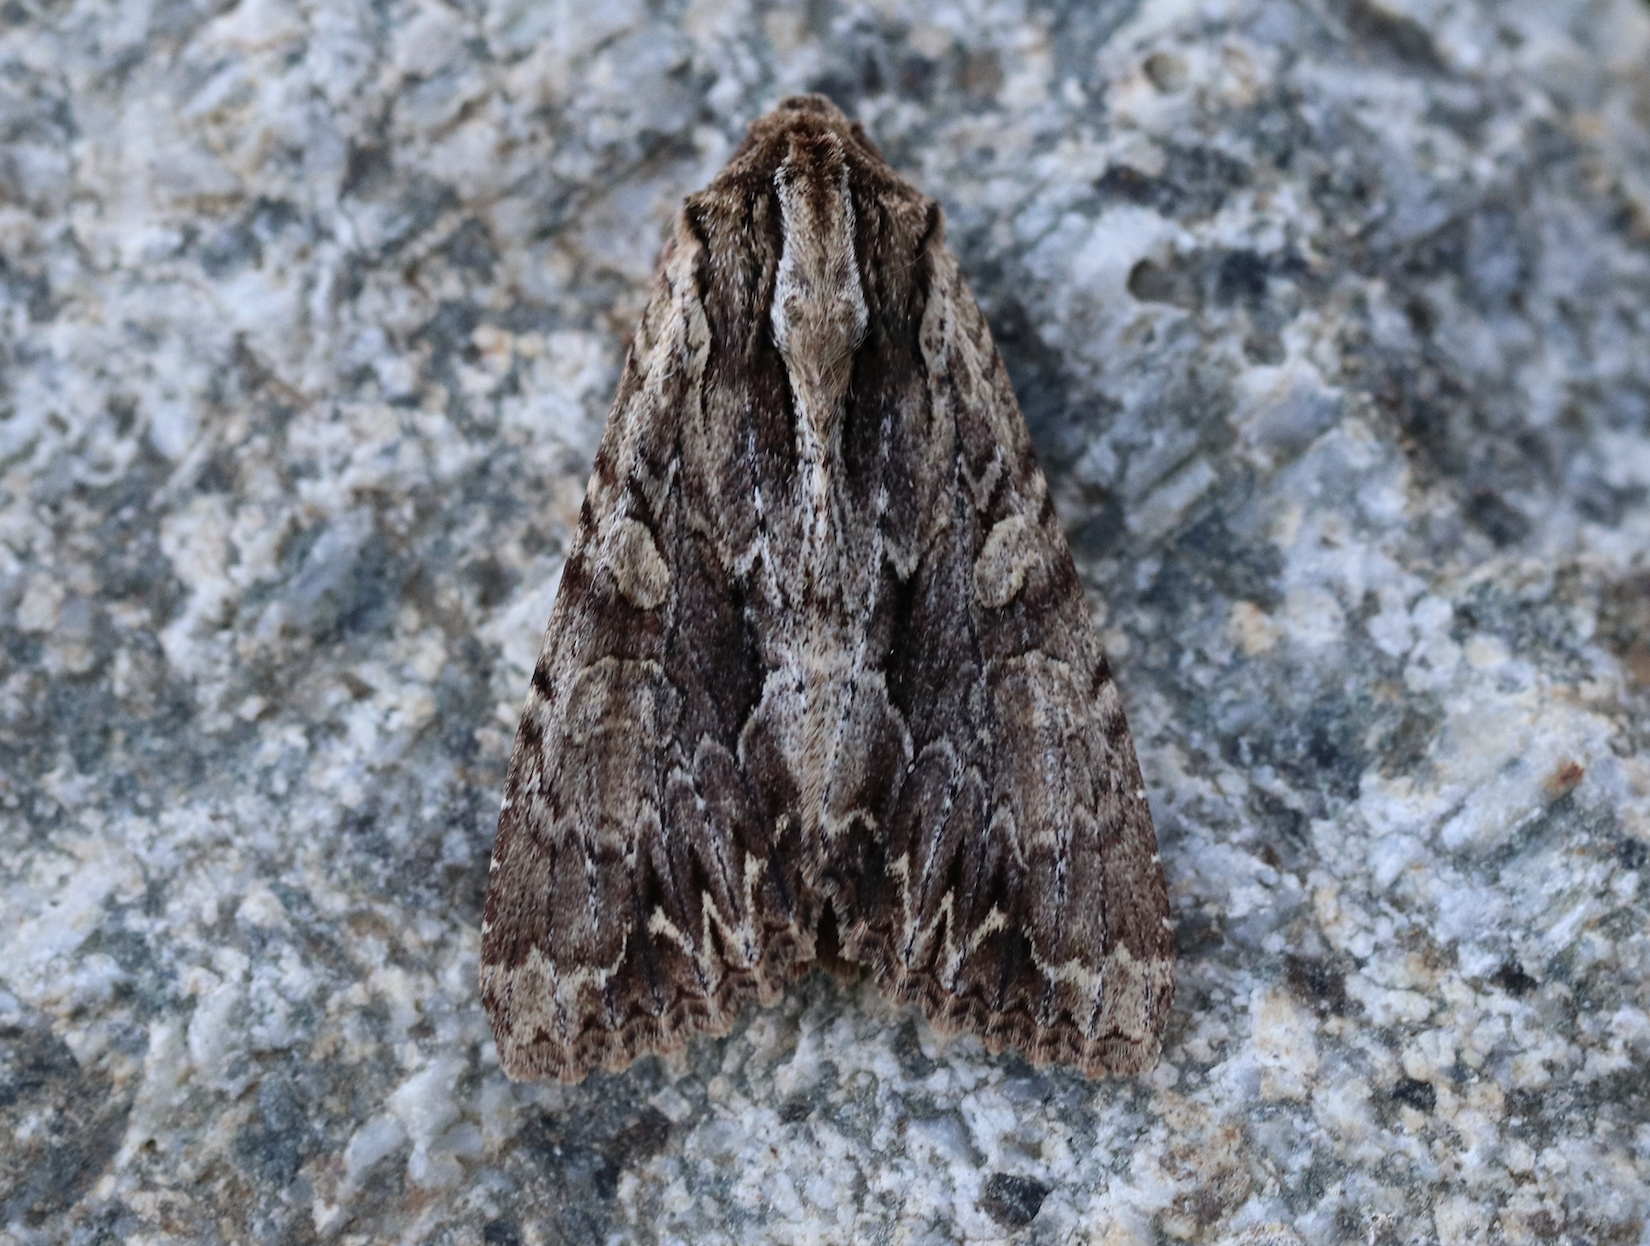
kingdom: Animalia
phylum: Arthropoda
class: Insecta
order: Lepidoptera
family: Noctuidae
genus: Apamea
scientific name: Apamea monoglypha
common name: Dark arches
